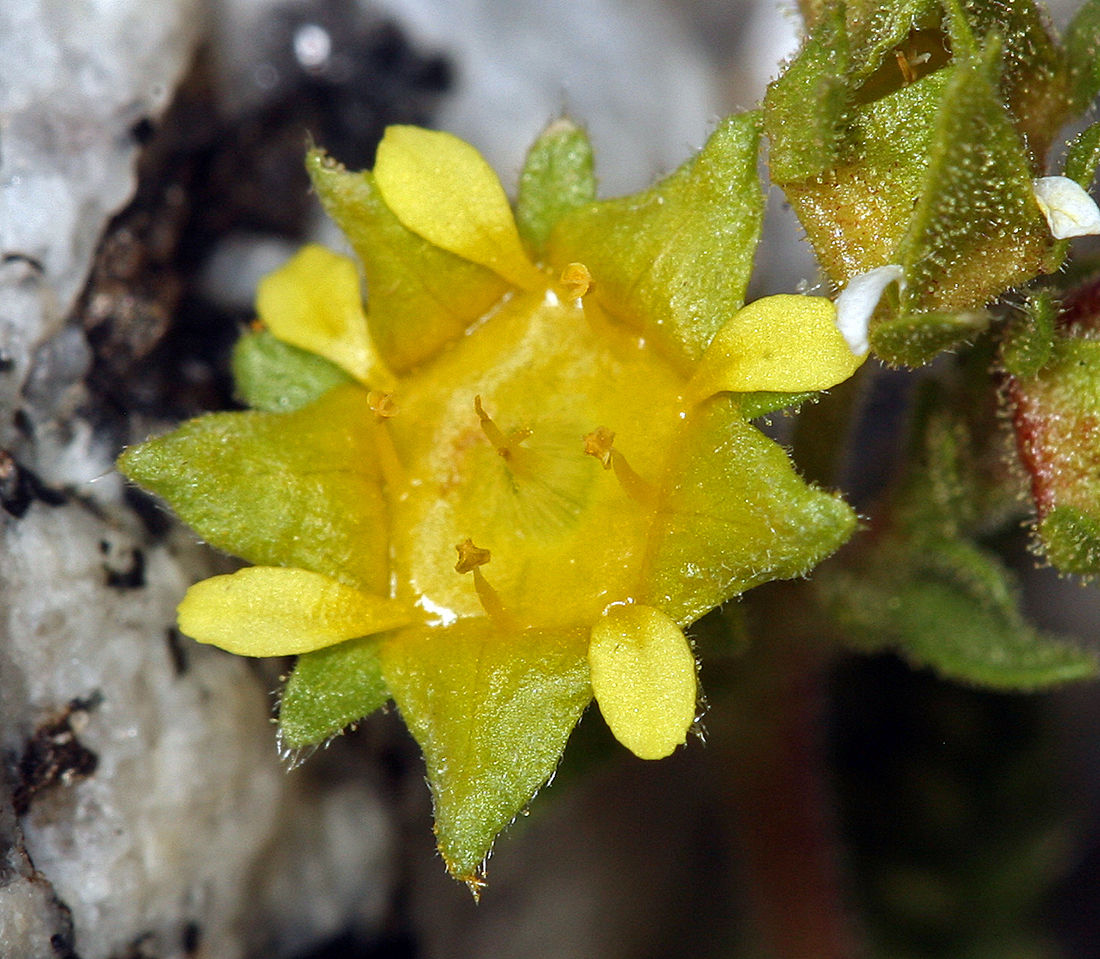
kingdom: Plantae
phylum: Tracheophyta
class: Magnoliopsida
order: Rosales
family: Rosaceae
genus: Potentilla
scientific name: Potentilla shockleyi
